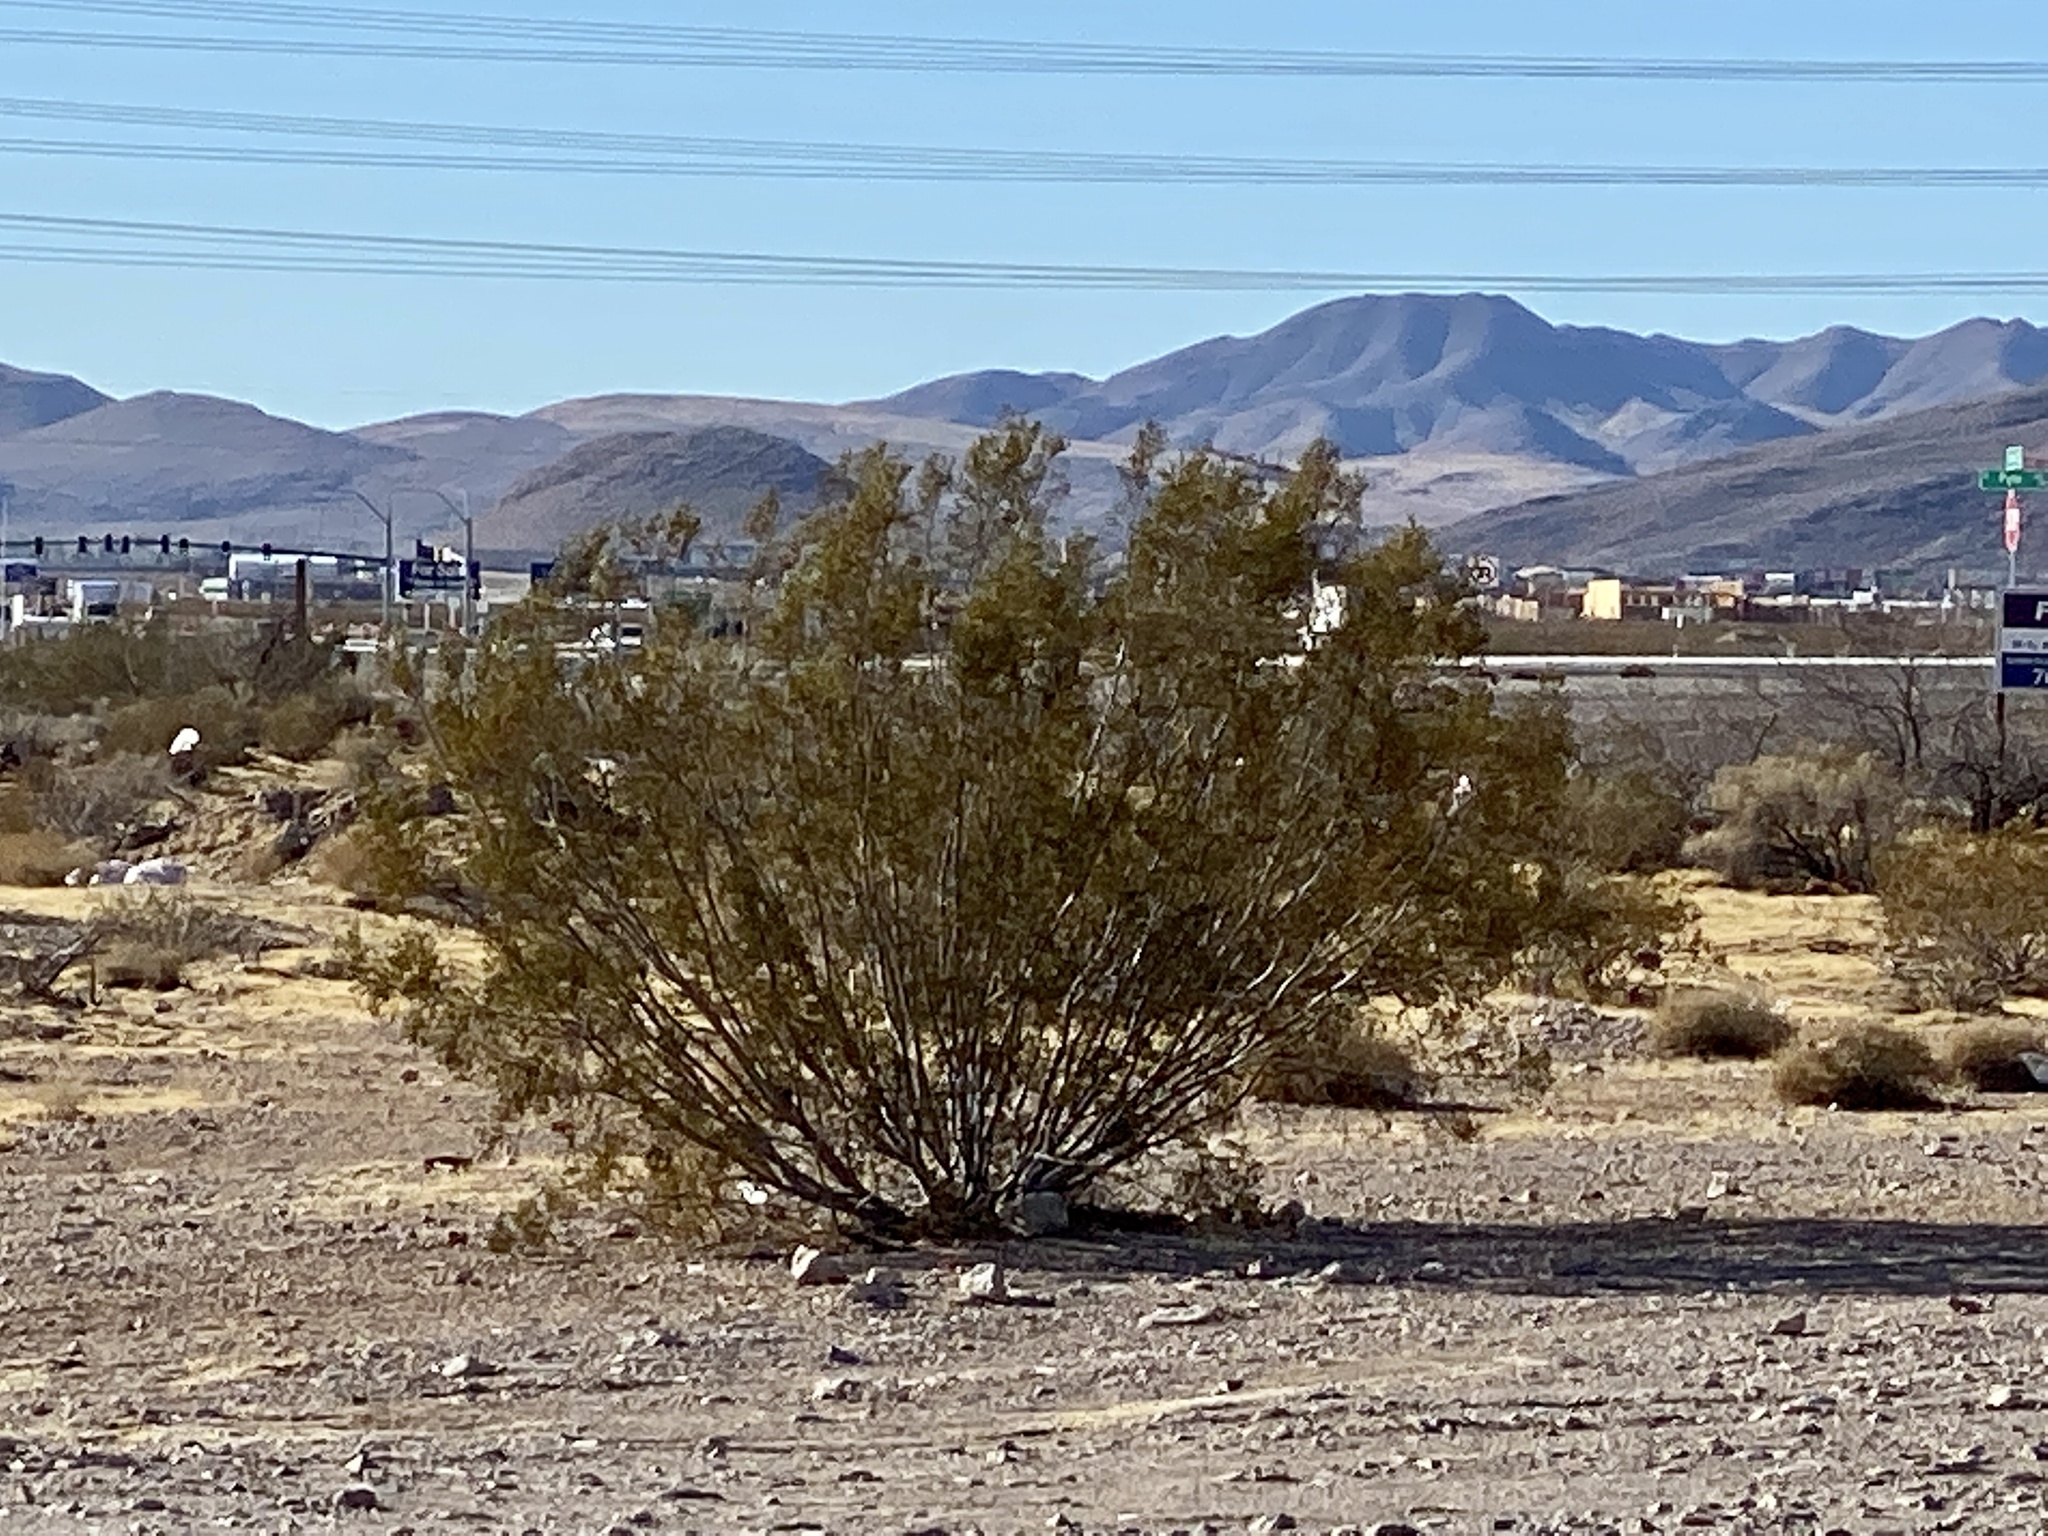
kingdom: Plantae
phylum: Tracheophyta
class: Magnoliopsida
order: Zygophyllales
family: Zygophyllaceae
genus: Larrea
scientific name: Larrea tridentata
